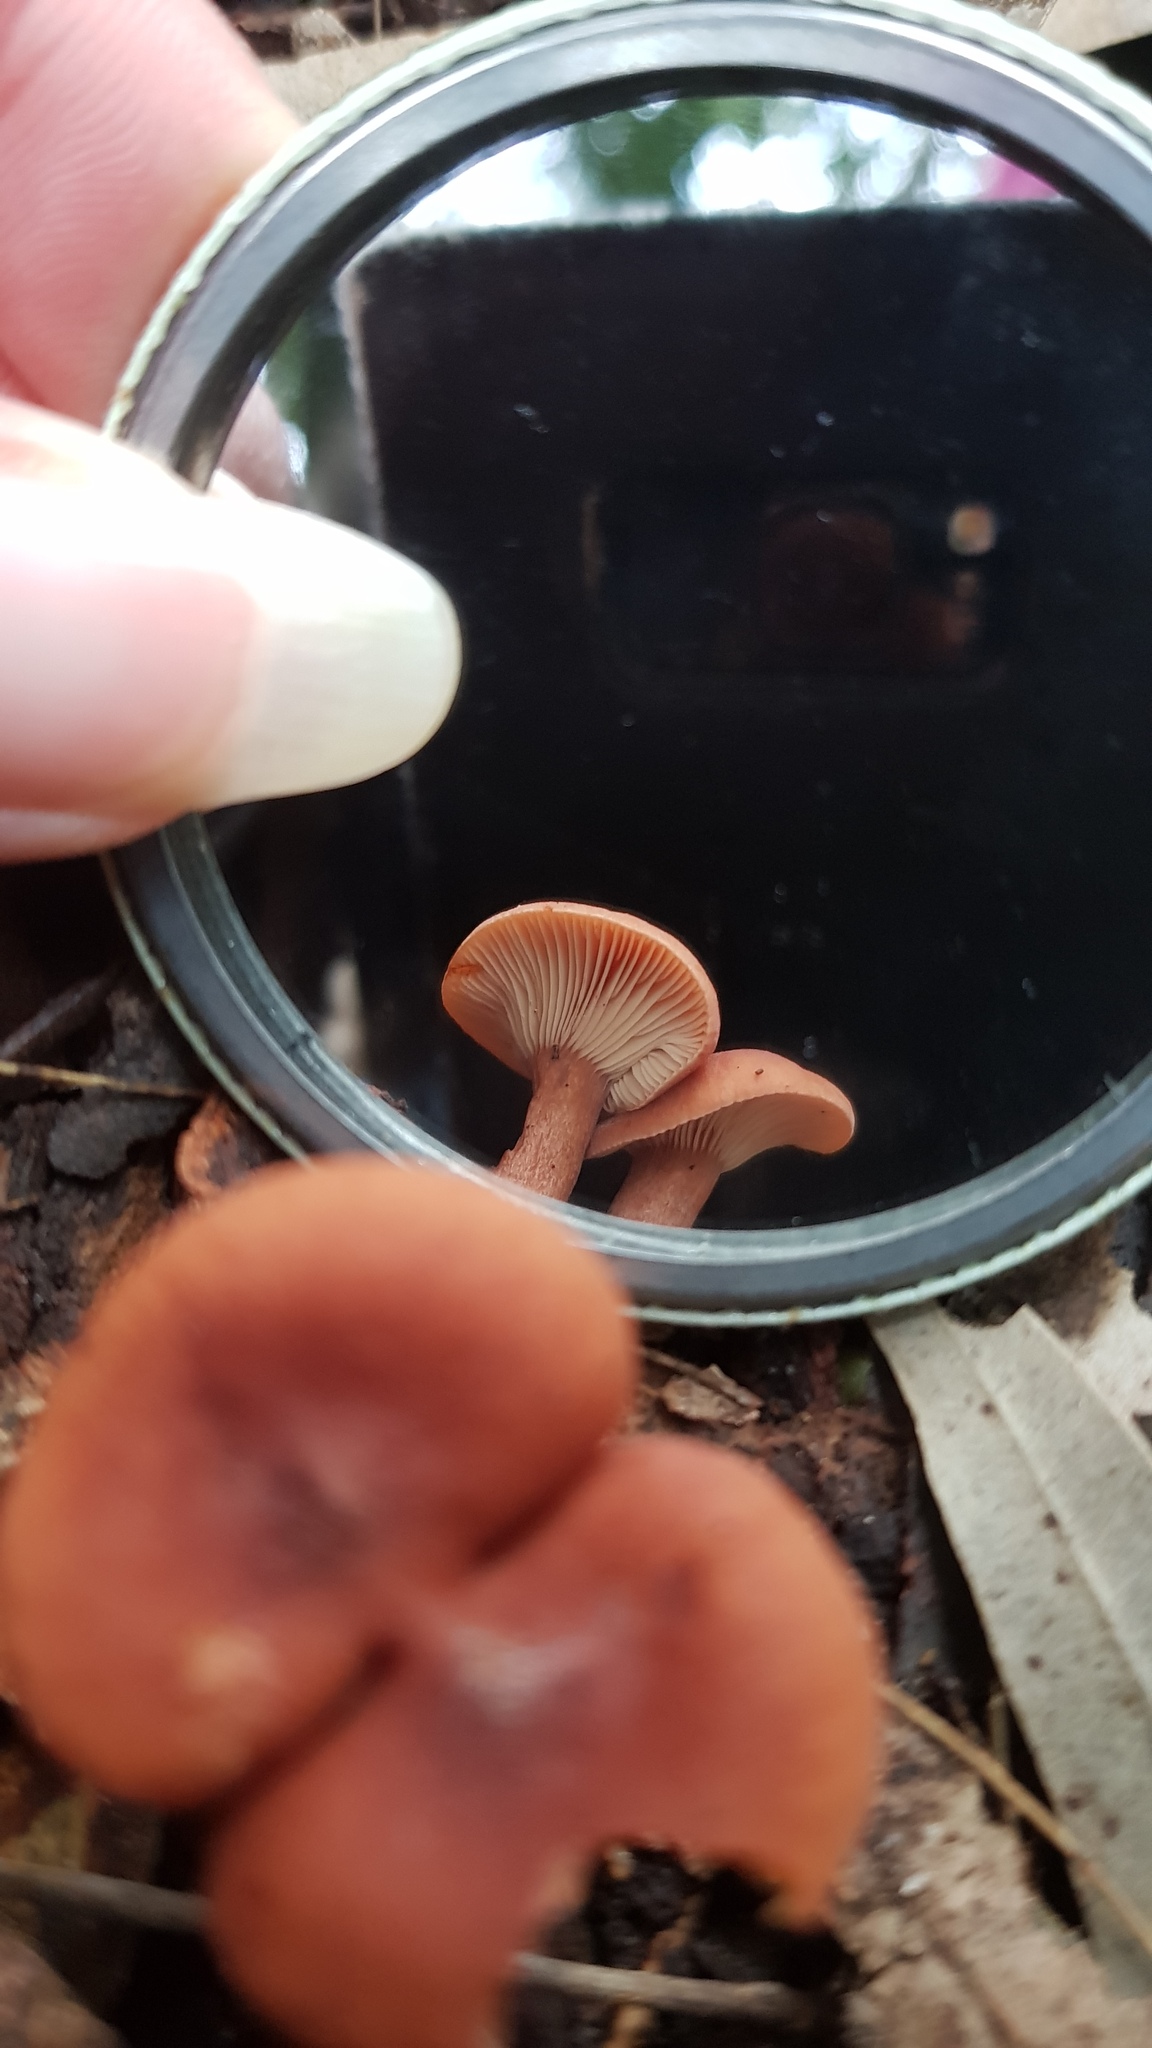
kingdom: Fungi
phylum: Basidiomycota
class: Agaricomycetes
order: Russulales
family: Russulaceae
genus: Lactarius
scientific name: Lactarius eucalypti
